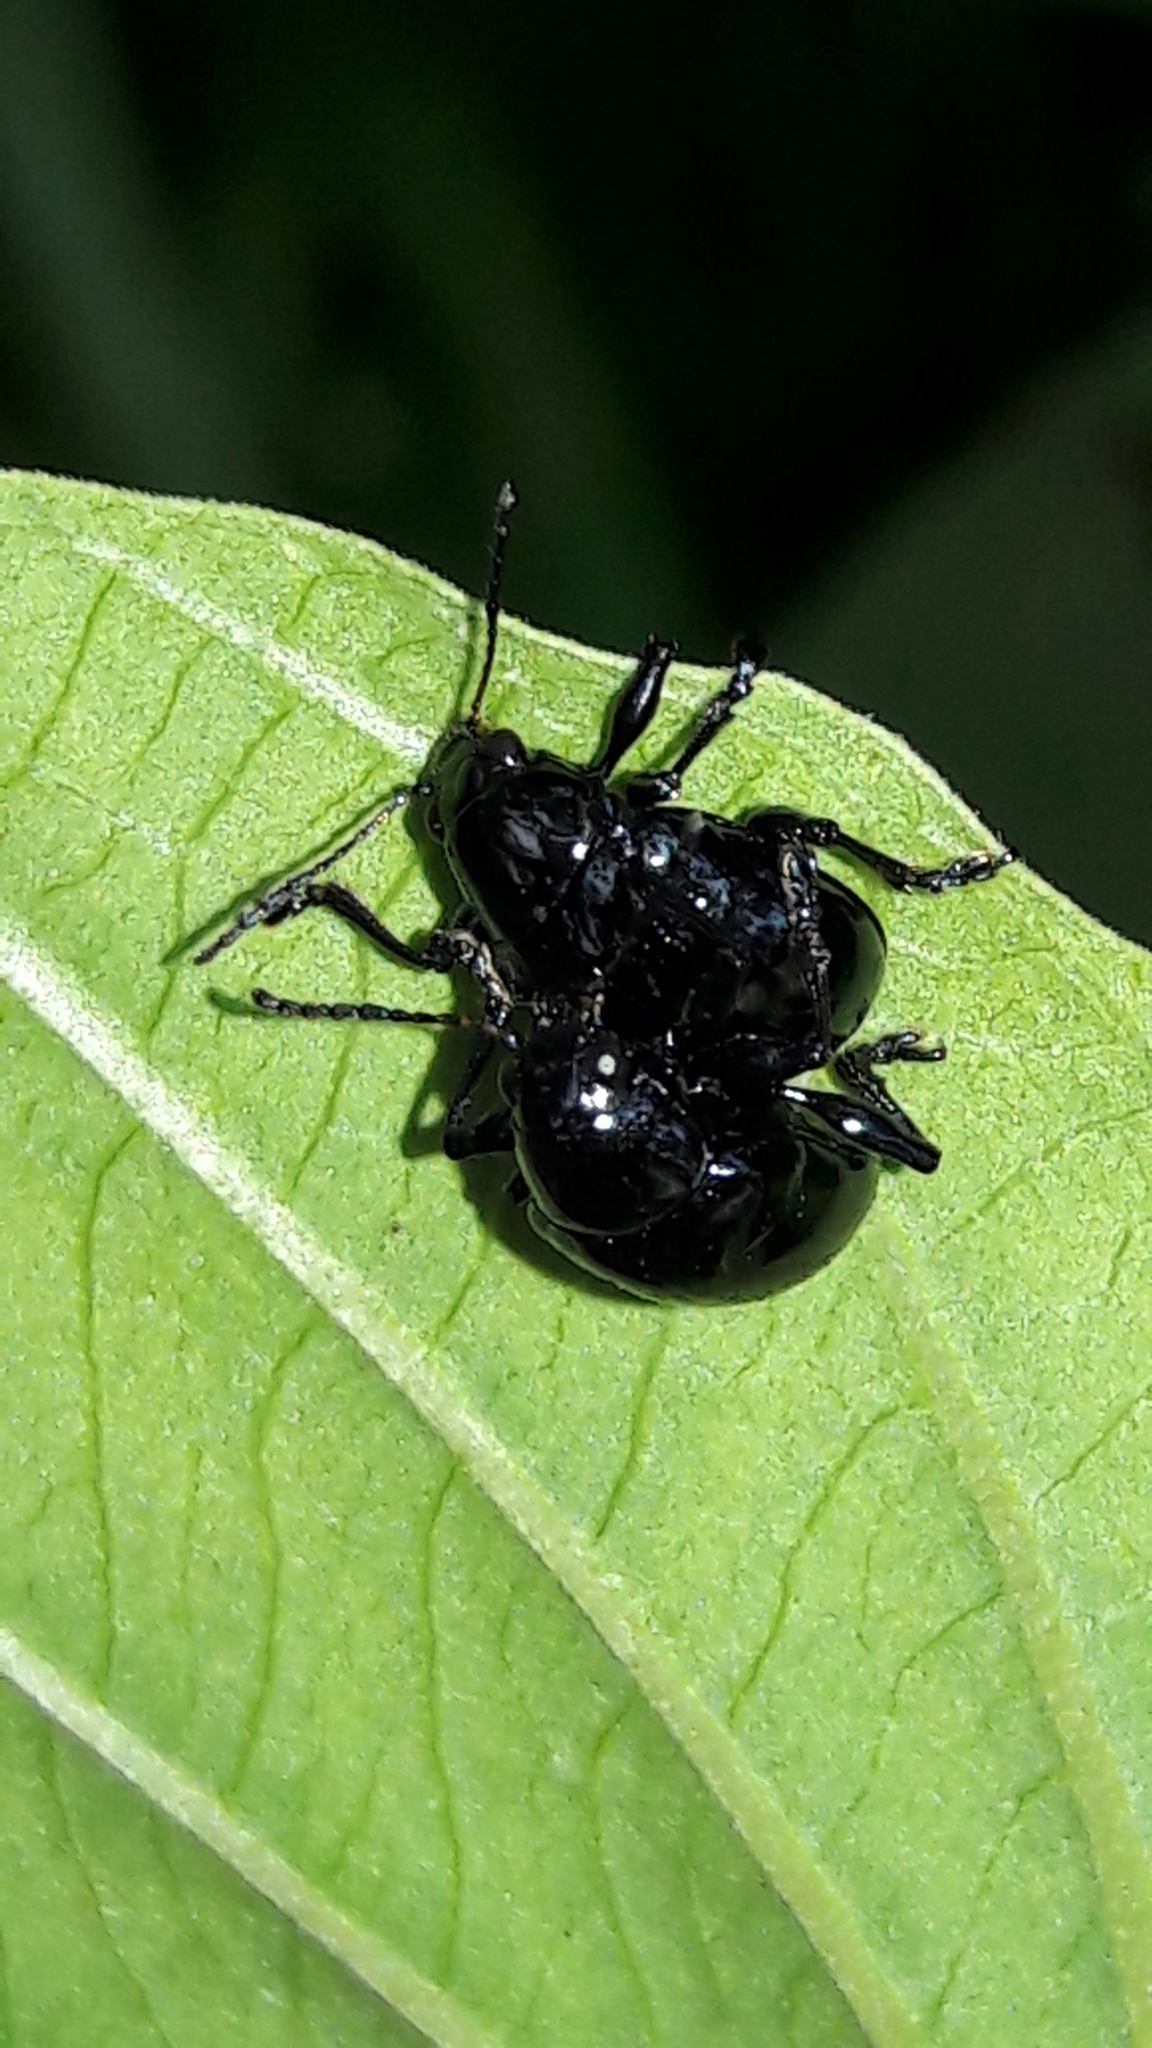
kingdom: Animalia
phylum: Arthropoda
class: Insecta
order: Coleoptera
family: Chrysomelidae
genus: Typophorus
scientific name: Typophorus nigritus
